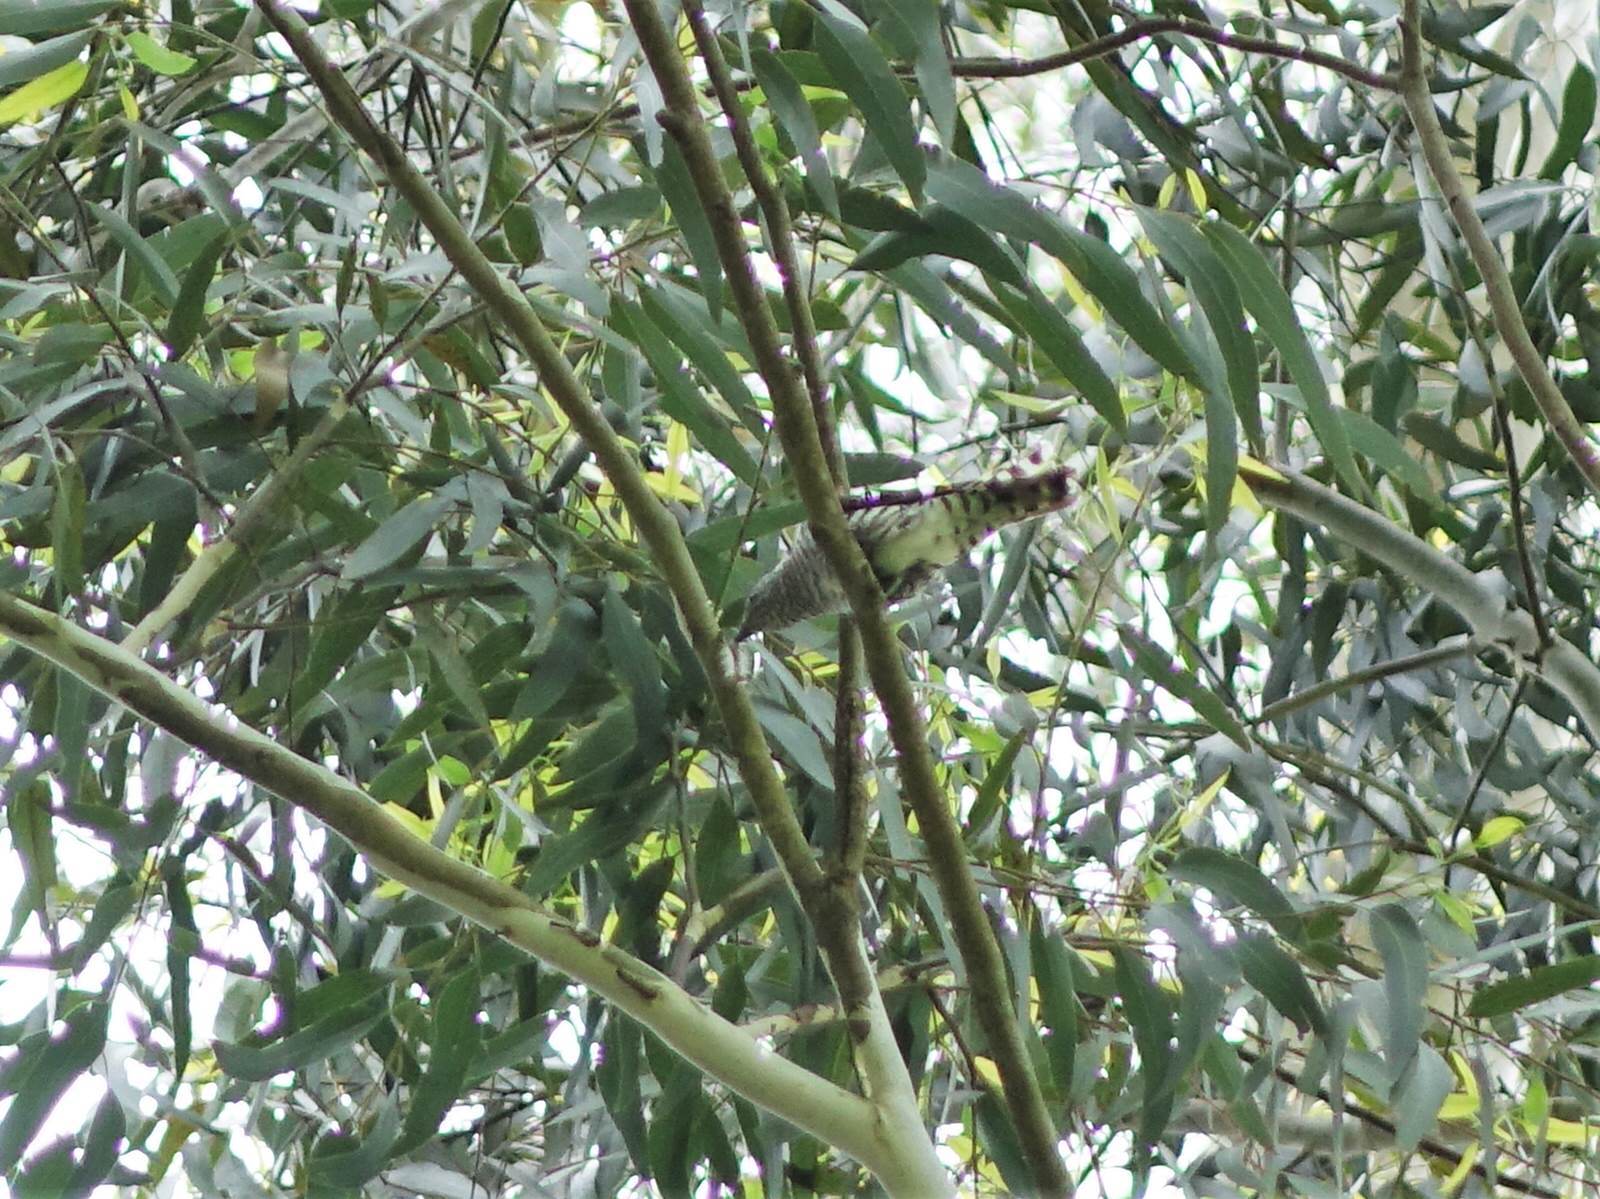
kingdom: Animalia
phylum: Chordata
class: Aves
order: Cuculiformes
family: Cuculidae
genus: Chrysococcyx
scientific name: Chrysococcyx lucidus
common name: Shining bronze cuckoo
